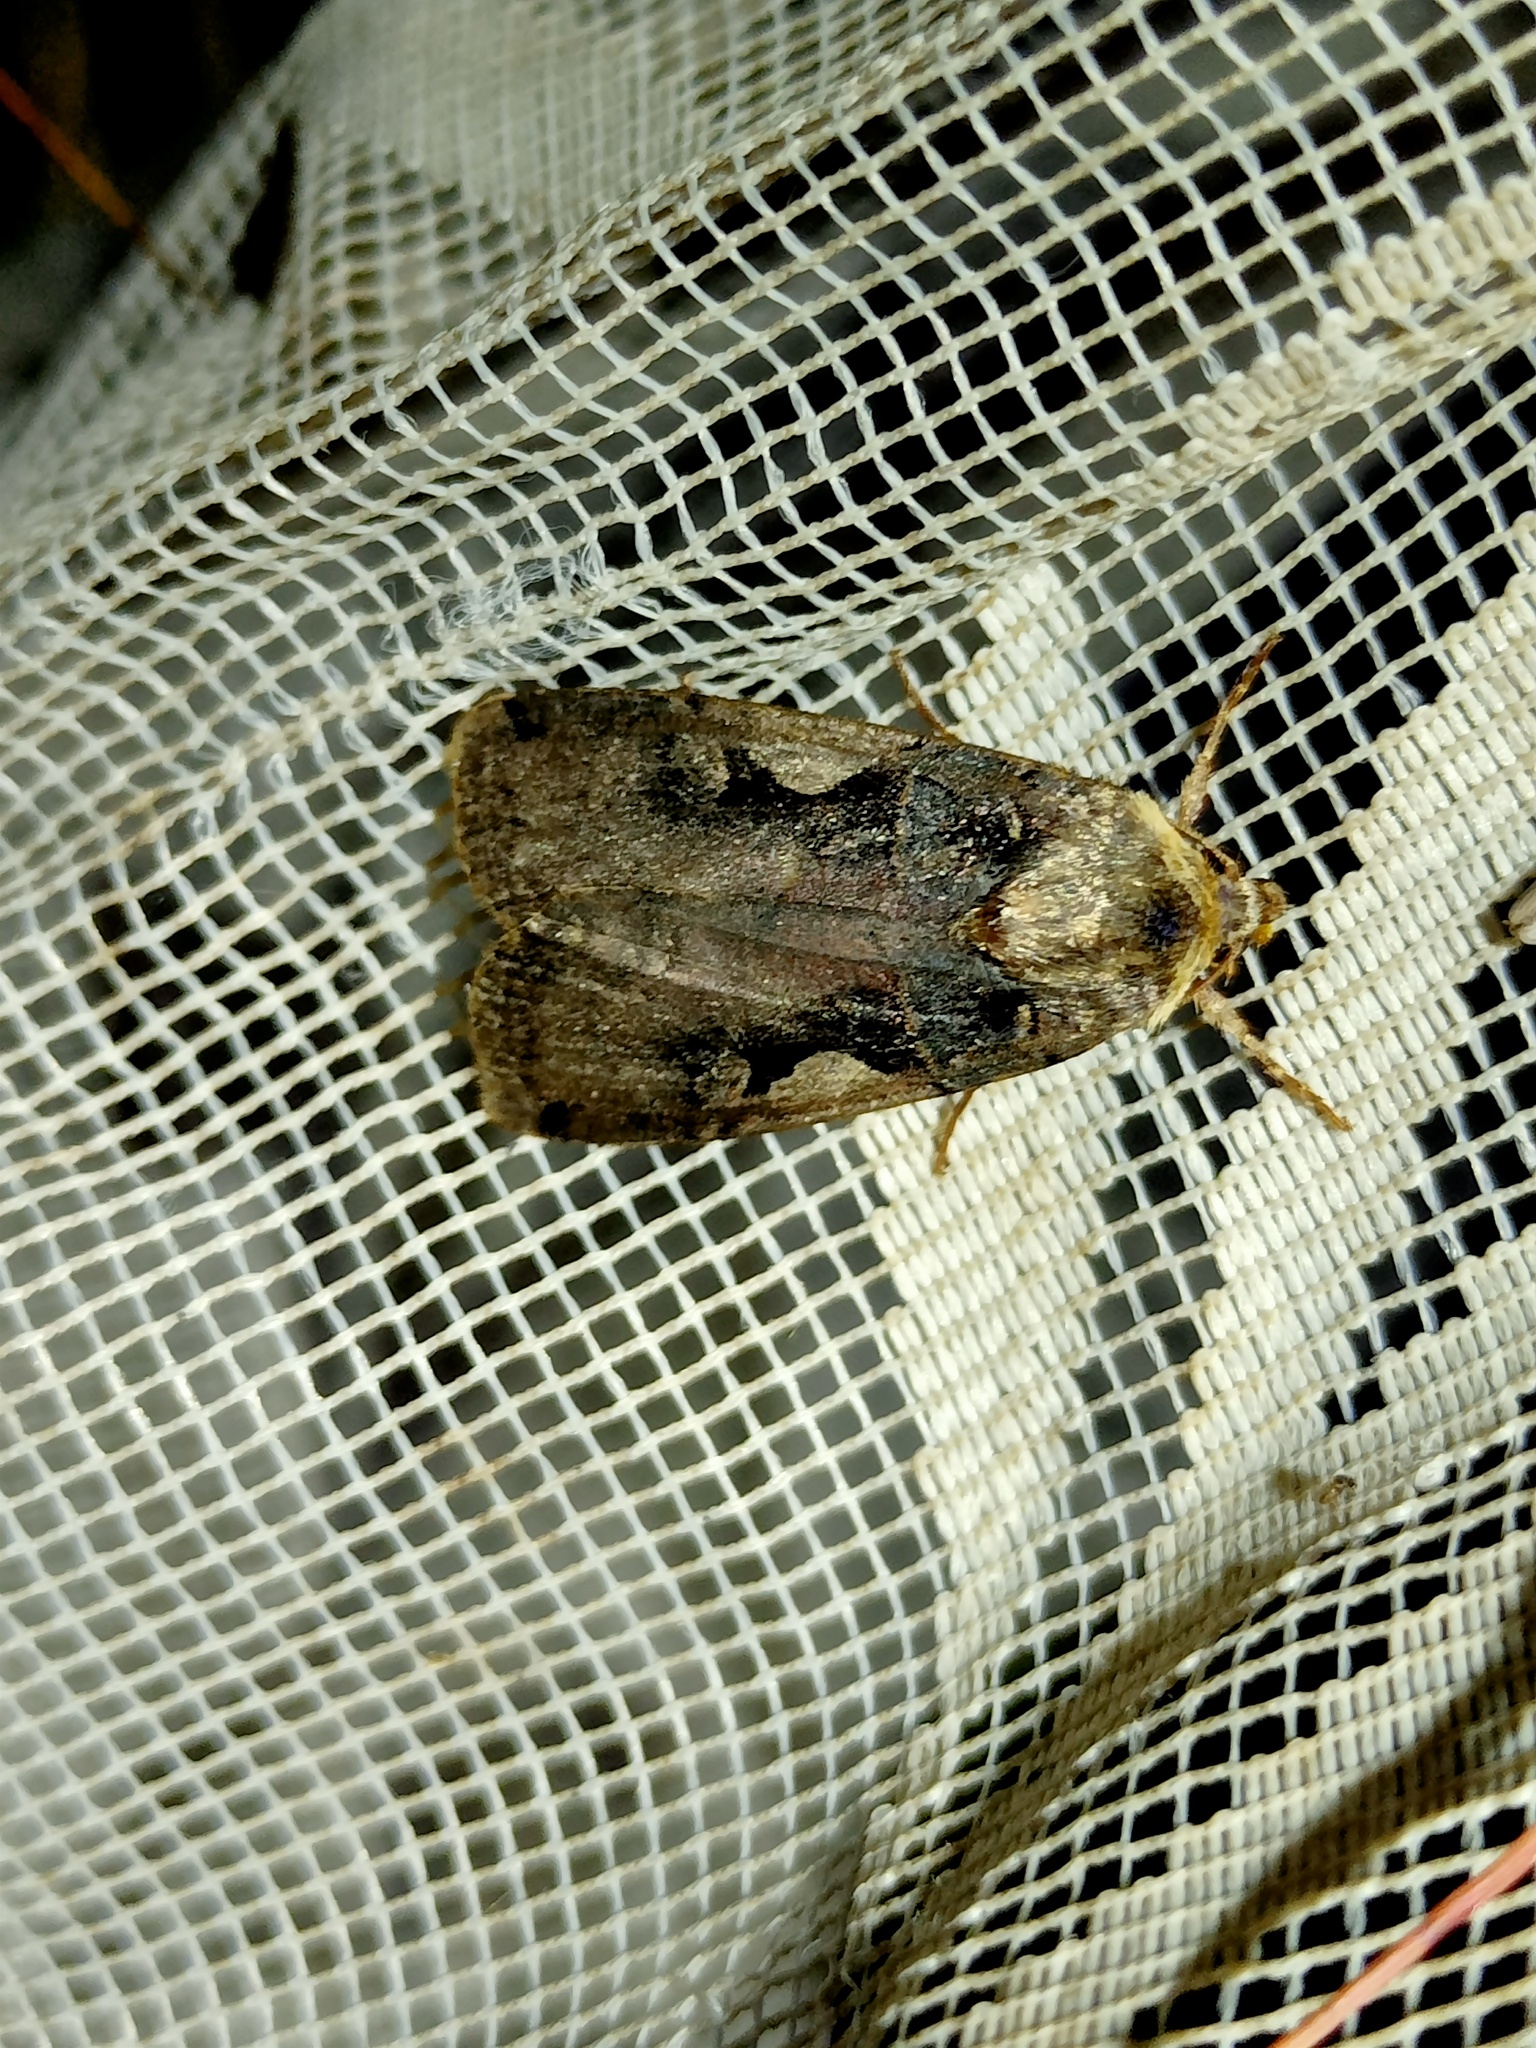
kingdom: Animalia
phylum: Arthropoda
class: Insecta
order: Lepidoptera
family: Noctuidae
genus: Xestia
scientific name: Xestia c-nigrum
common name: Setaceous hebrew character
